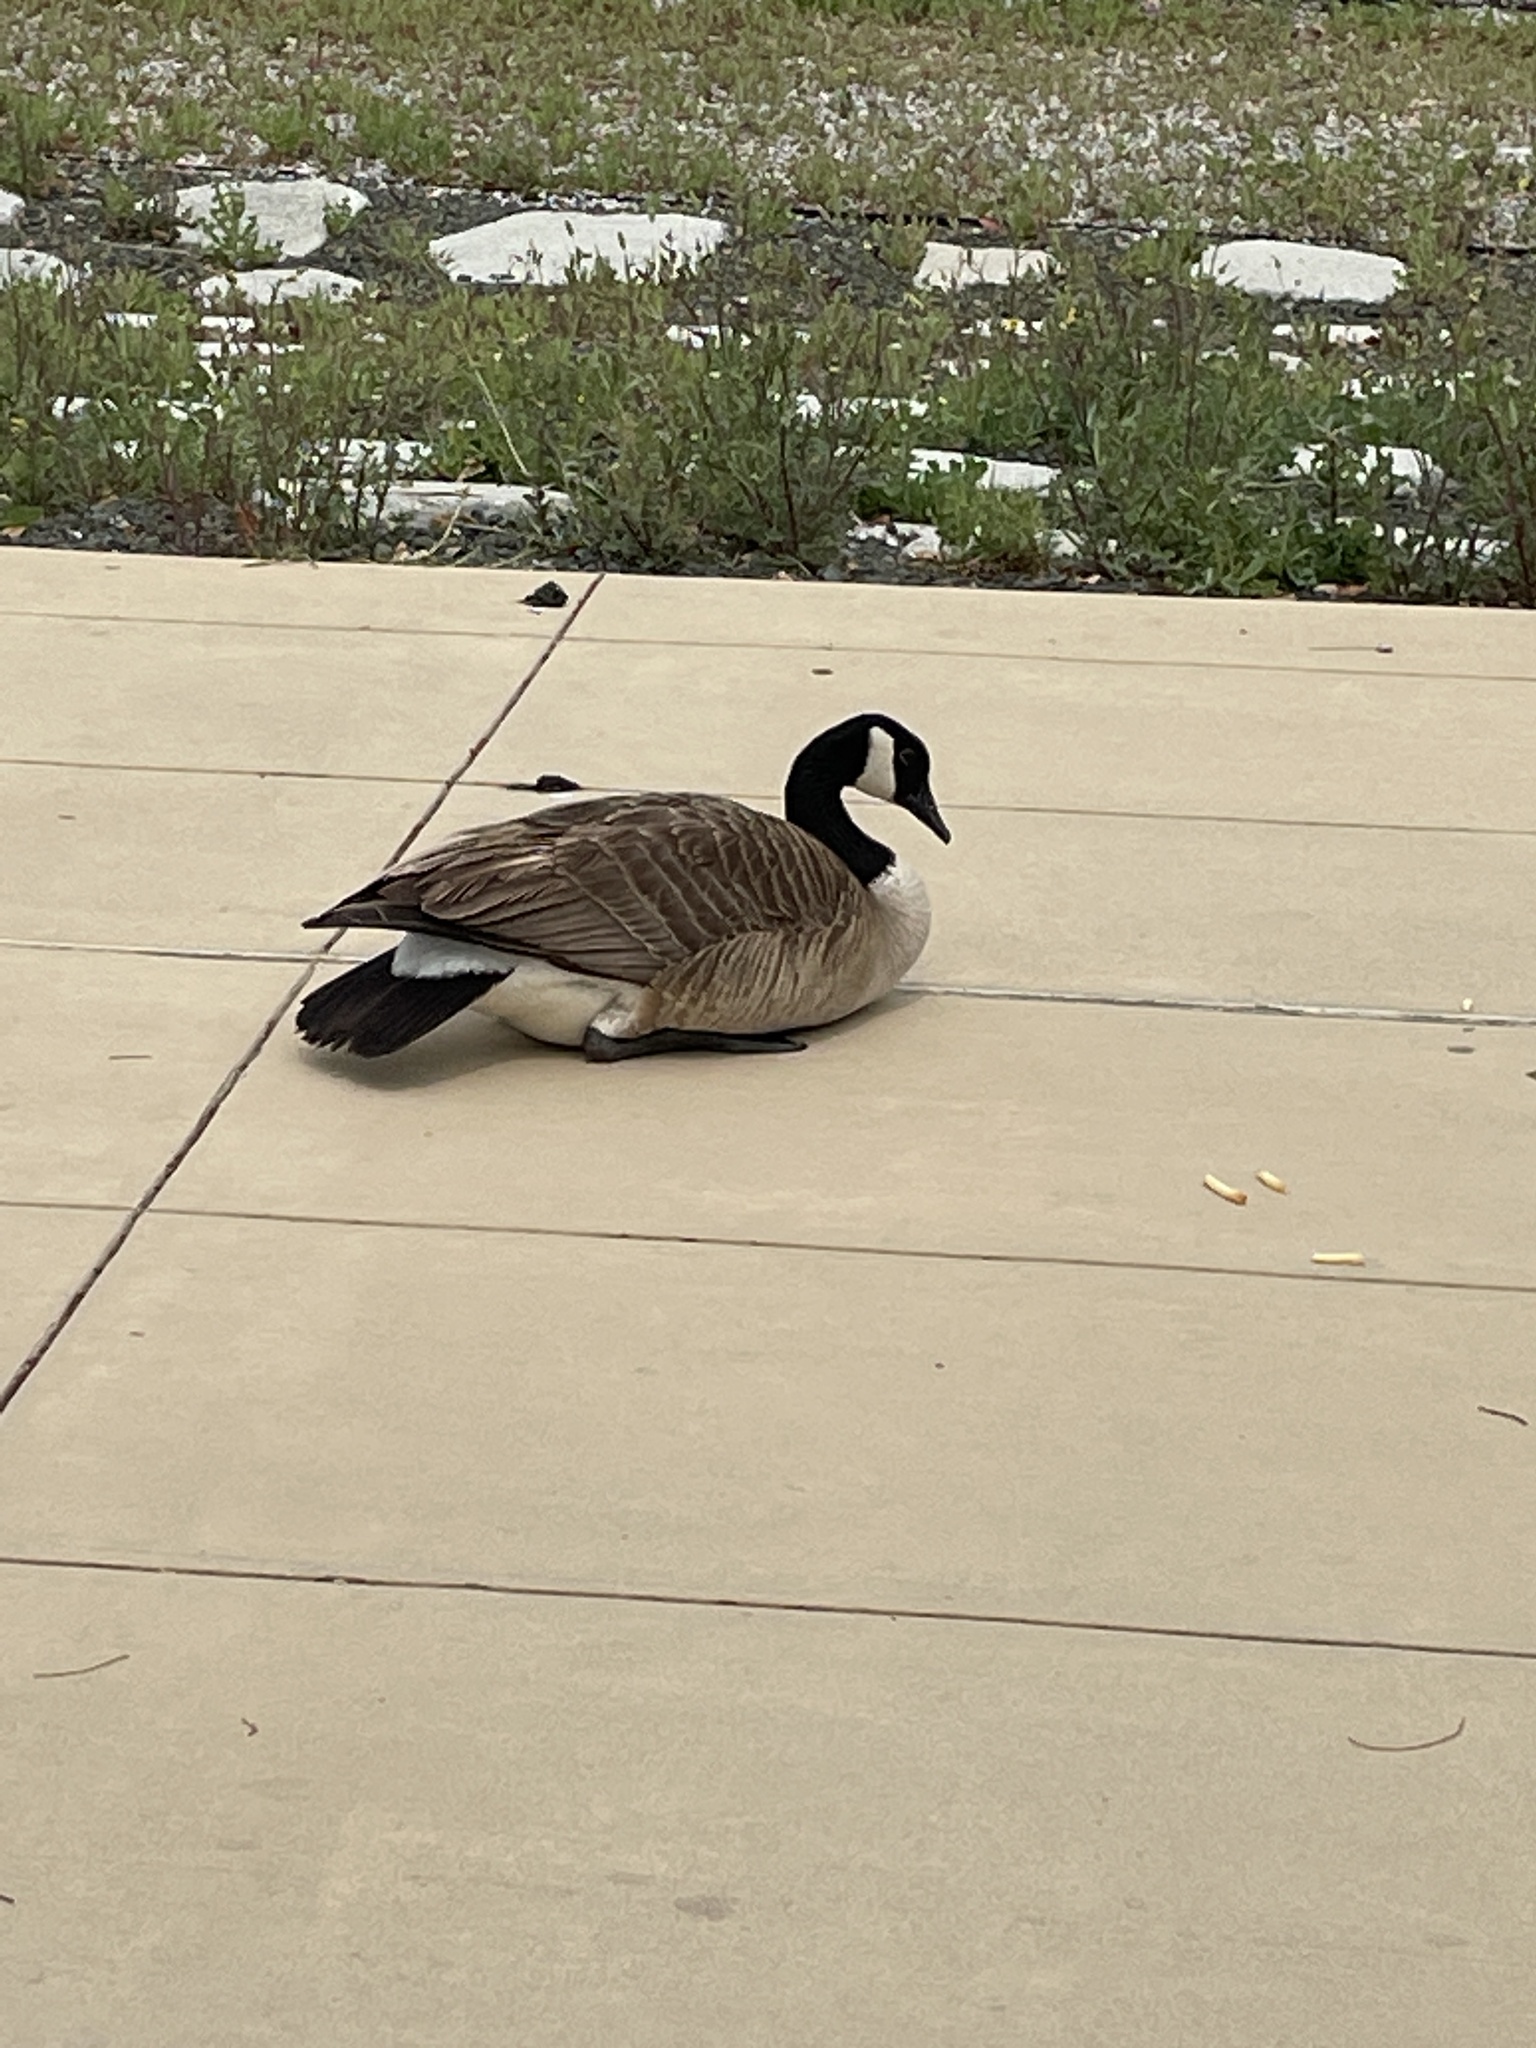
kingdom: Animalia
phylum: Chordata
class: Aves
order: Anseriformes
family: Anatidae
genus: Branta
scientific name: Branta canadensis
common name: Canada goose
